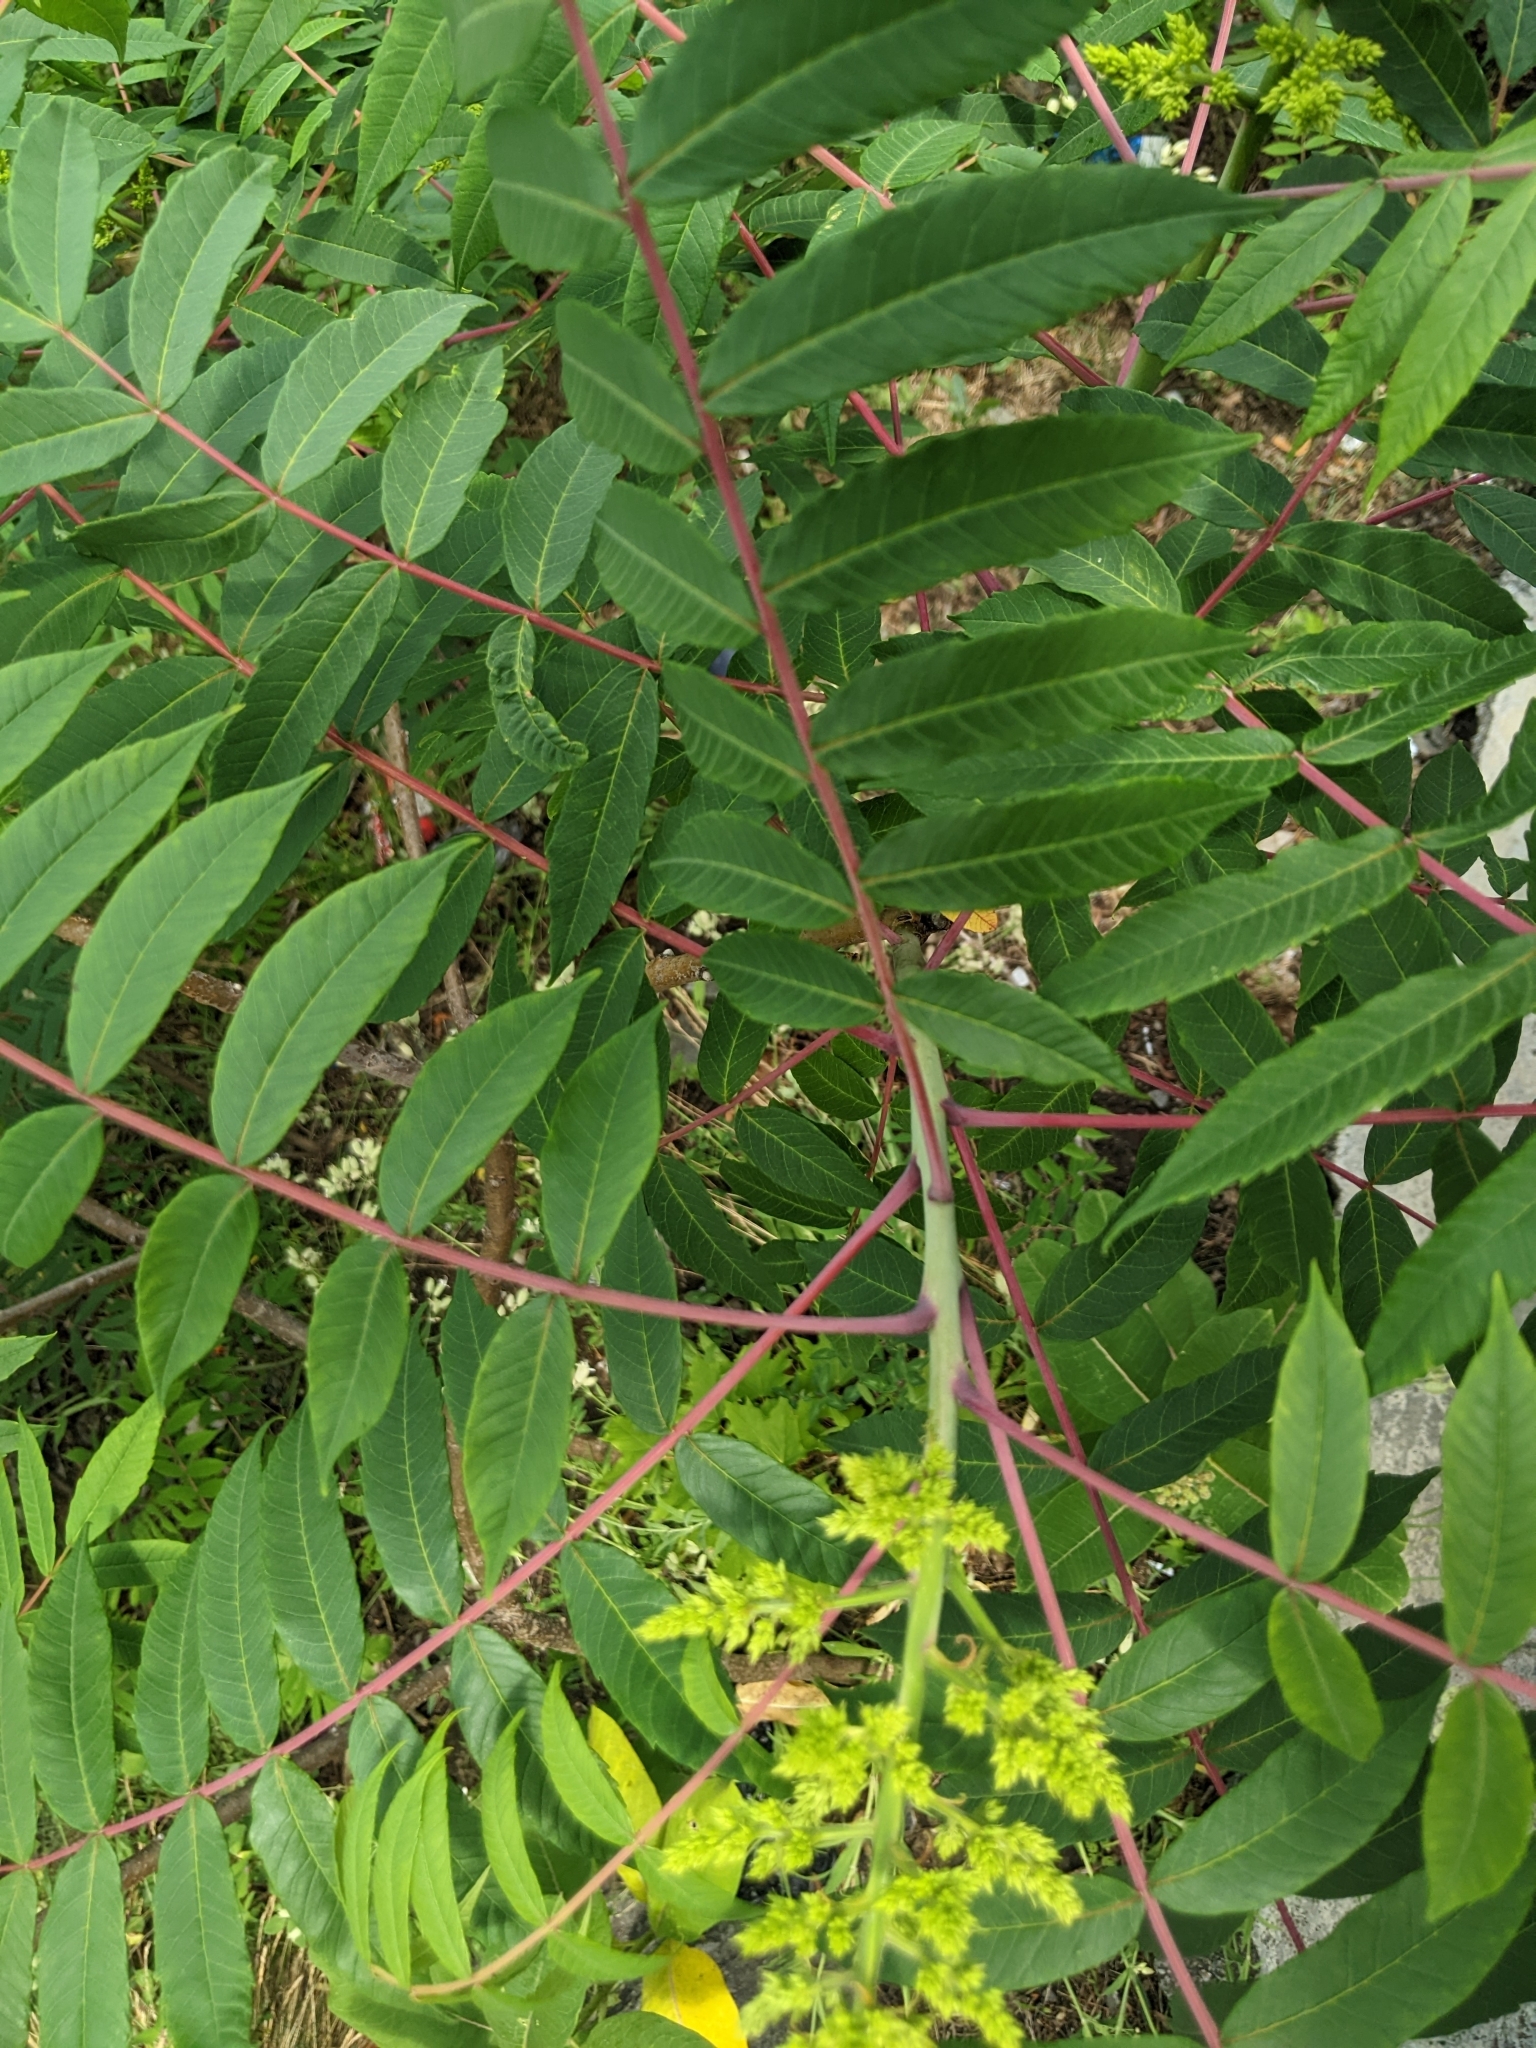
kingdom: Plantae
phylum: Tracheophyta
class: Magnoliopsida
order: Sapindales
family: Anacardiaceae
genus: Rhus
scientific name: Rhus glabra
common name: Scarlet sumac
